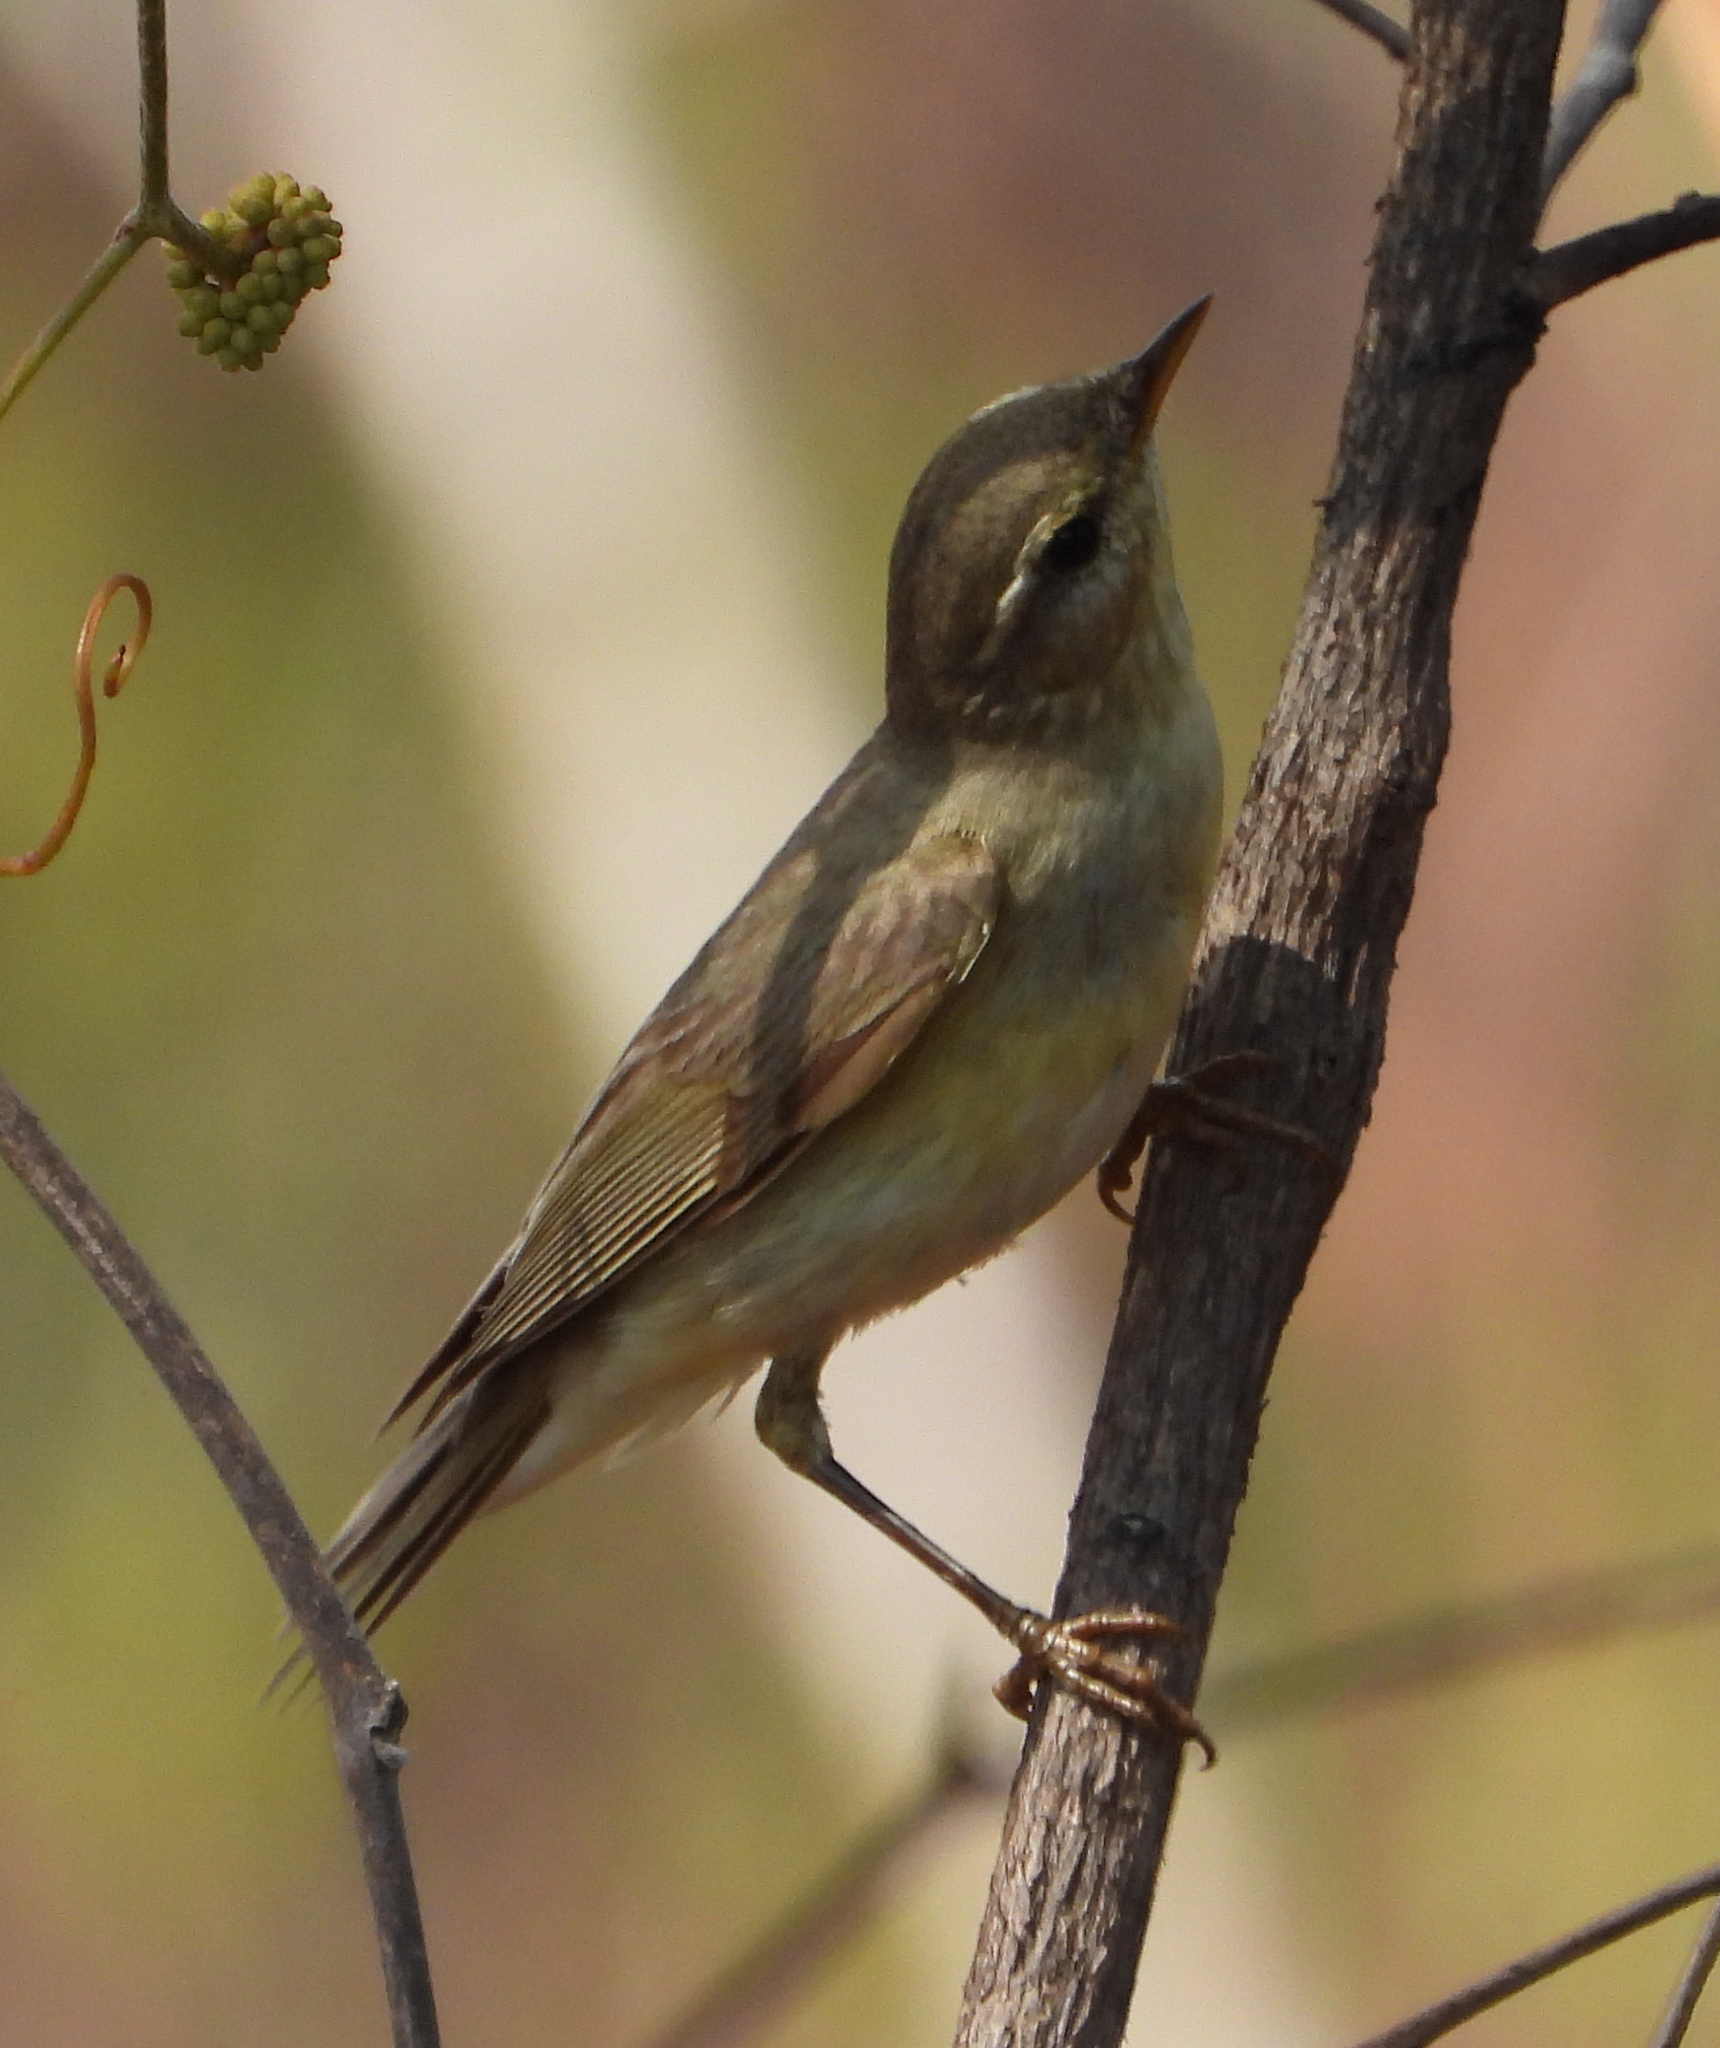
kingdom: Animalia
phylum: Chordata
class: Aves
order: Passeriformes
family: Phylloscopidae
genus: Phylloscopus
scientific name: Phylloscopus trochilus
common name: Willow warbler
